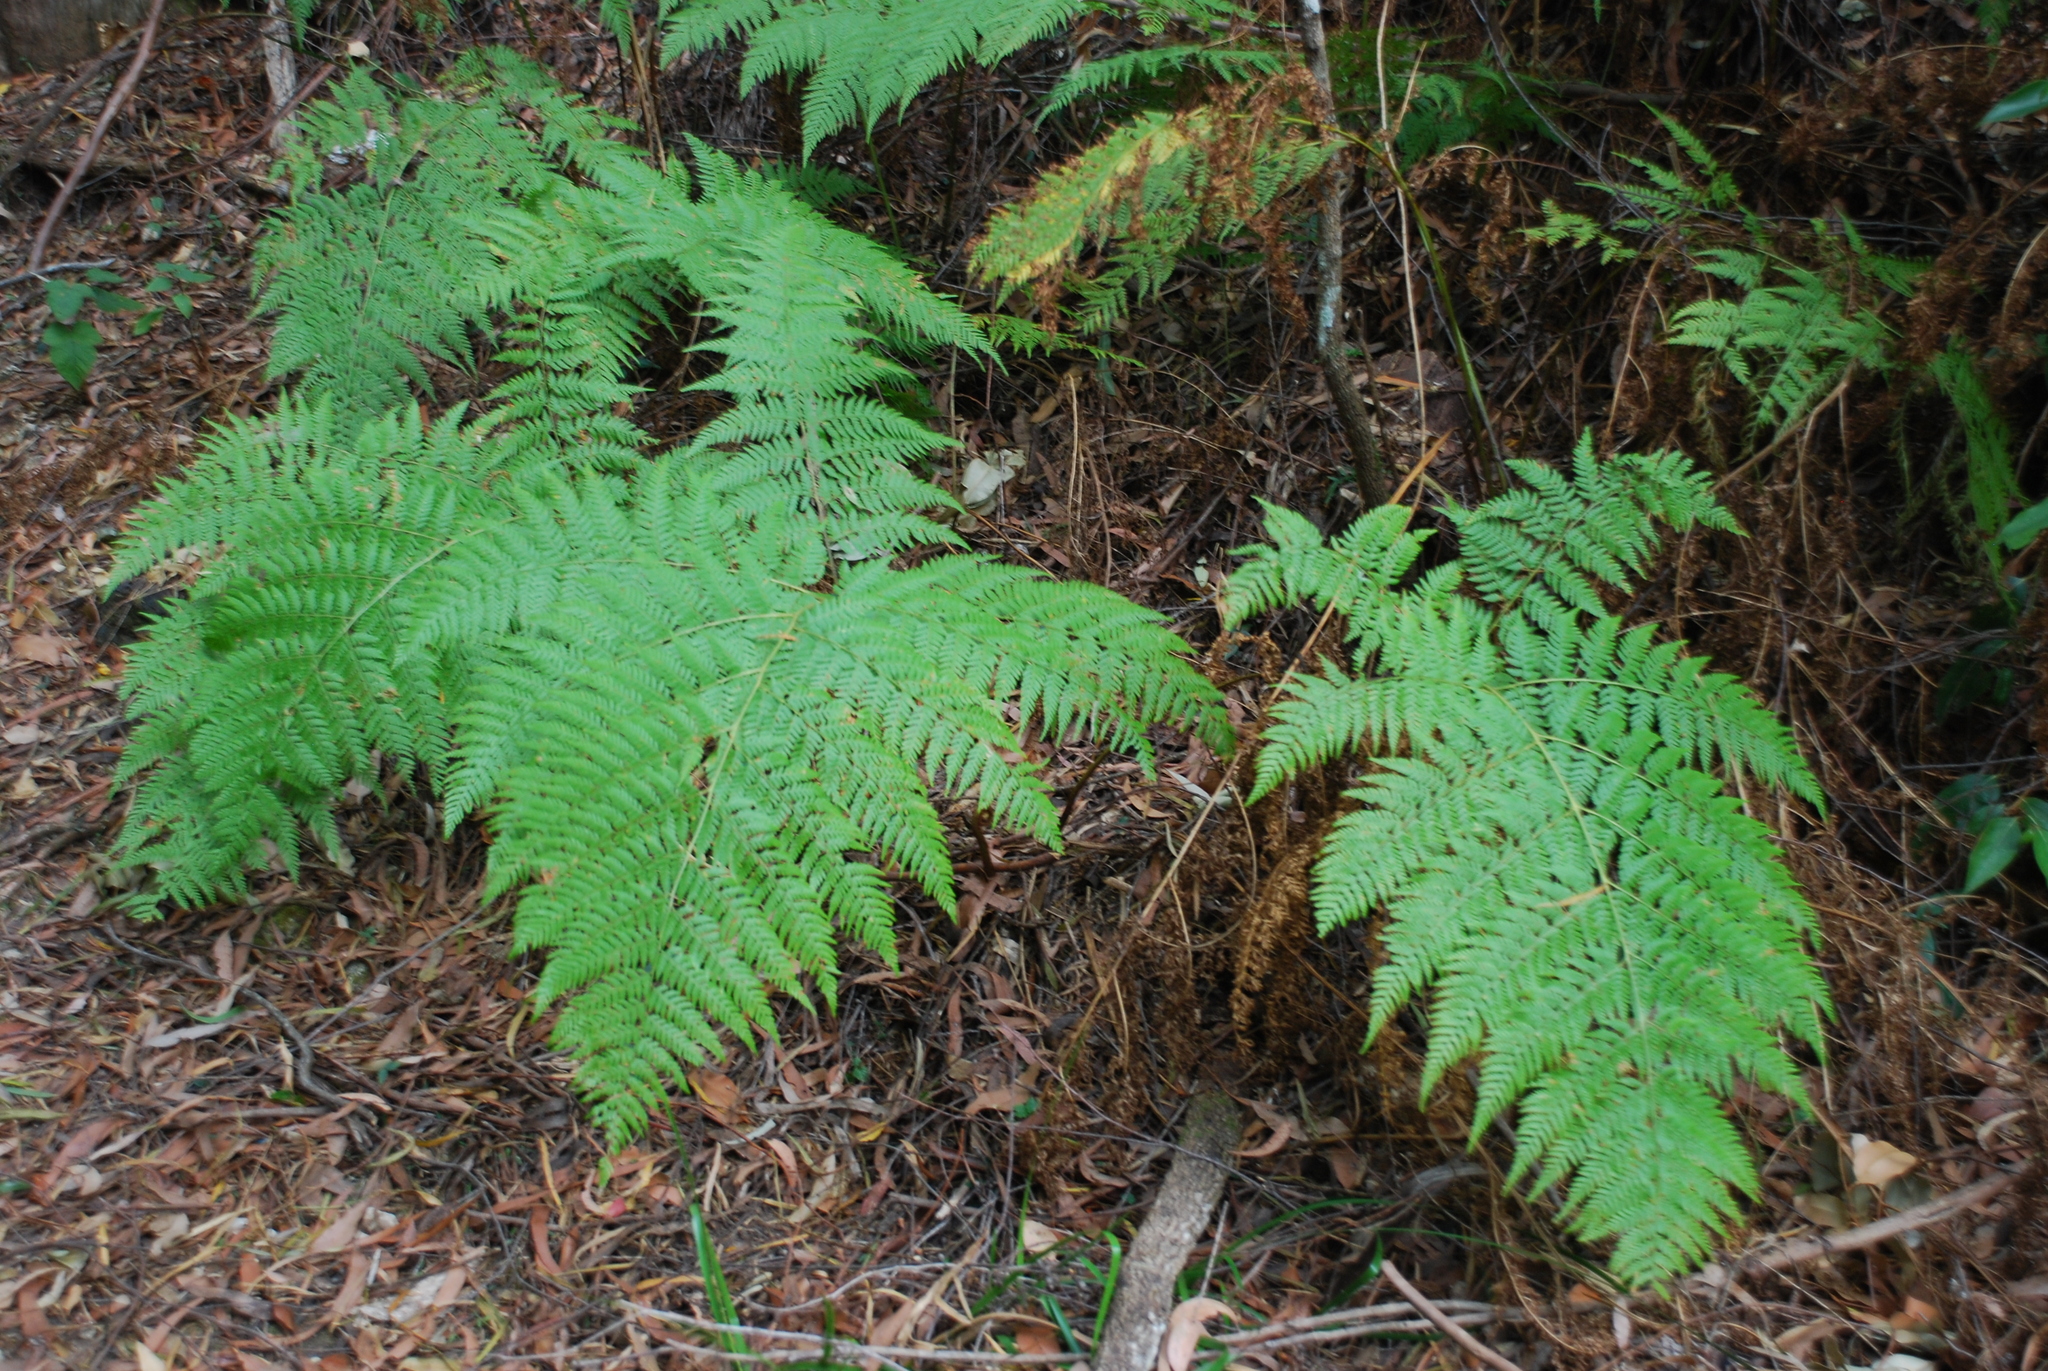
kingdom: Plantae
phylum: Tracheophyta
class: Polypodiopsida
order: Cyatheales
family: Dicksoniaceae
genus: Calochlaena
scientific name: Calochlaena dubia
